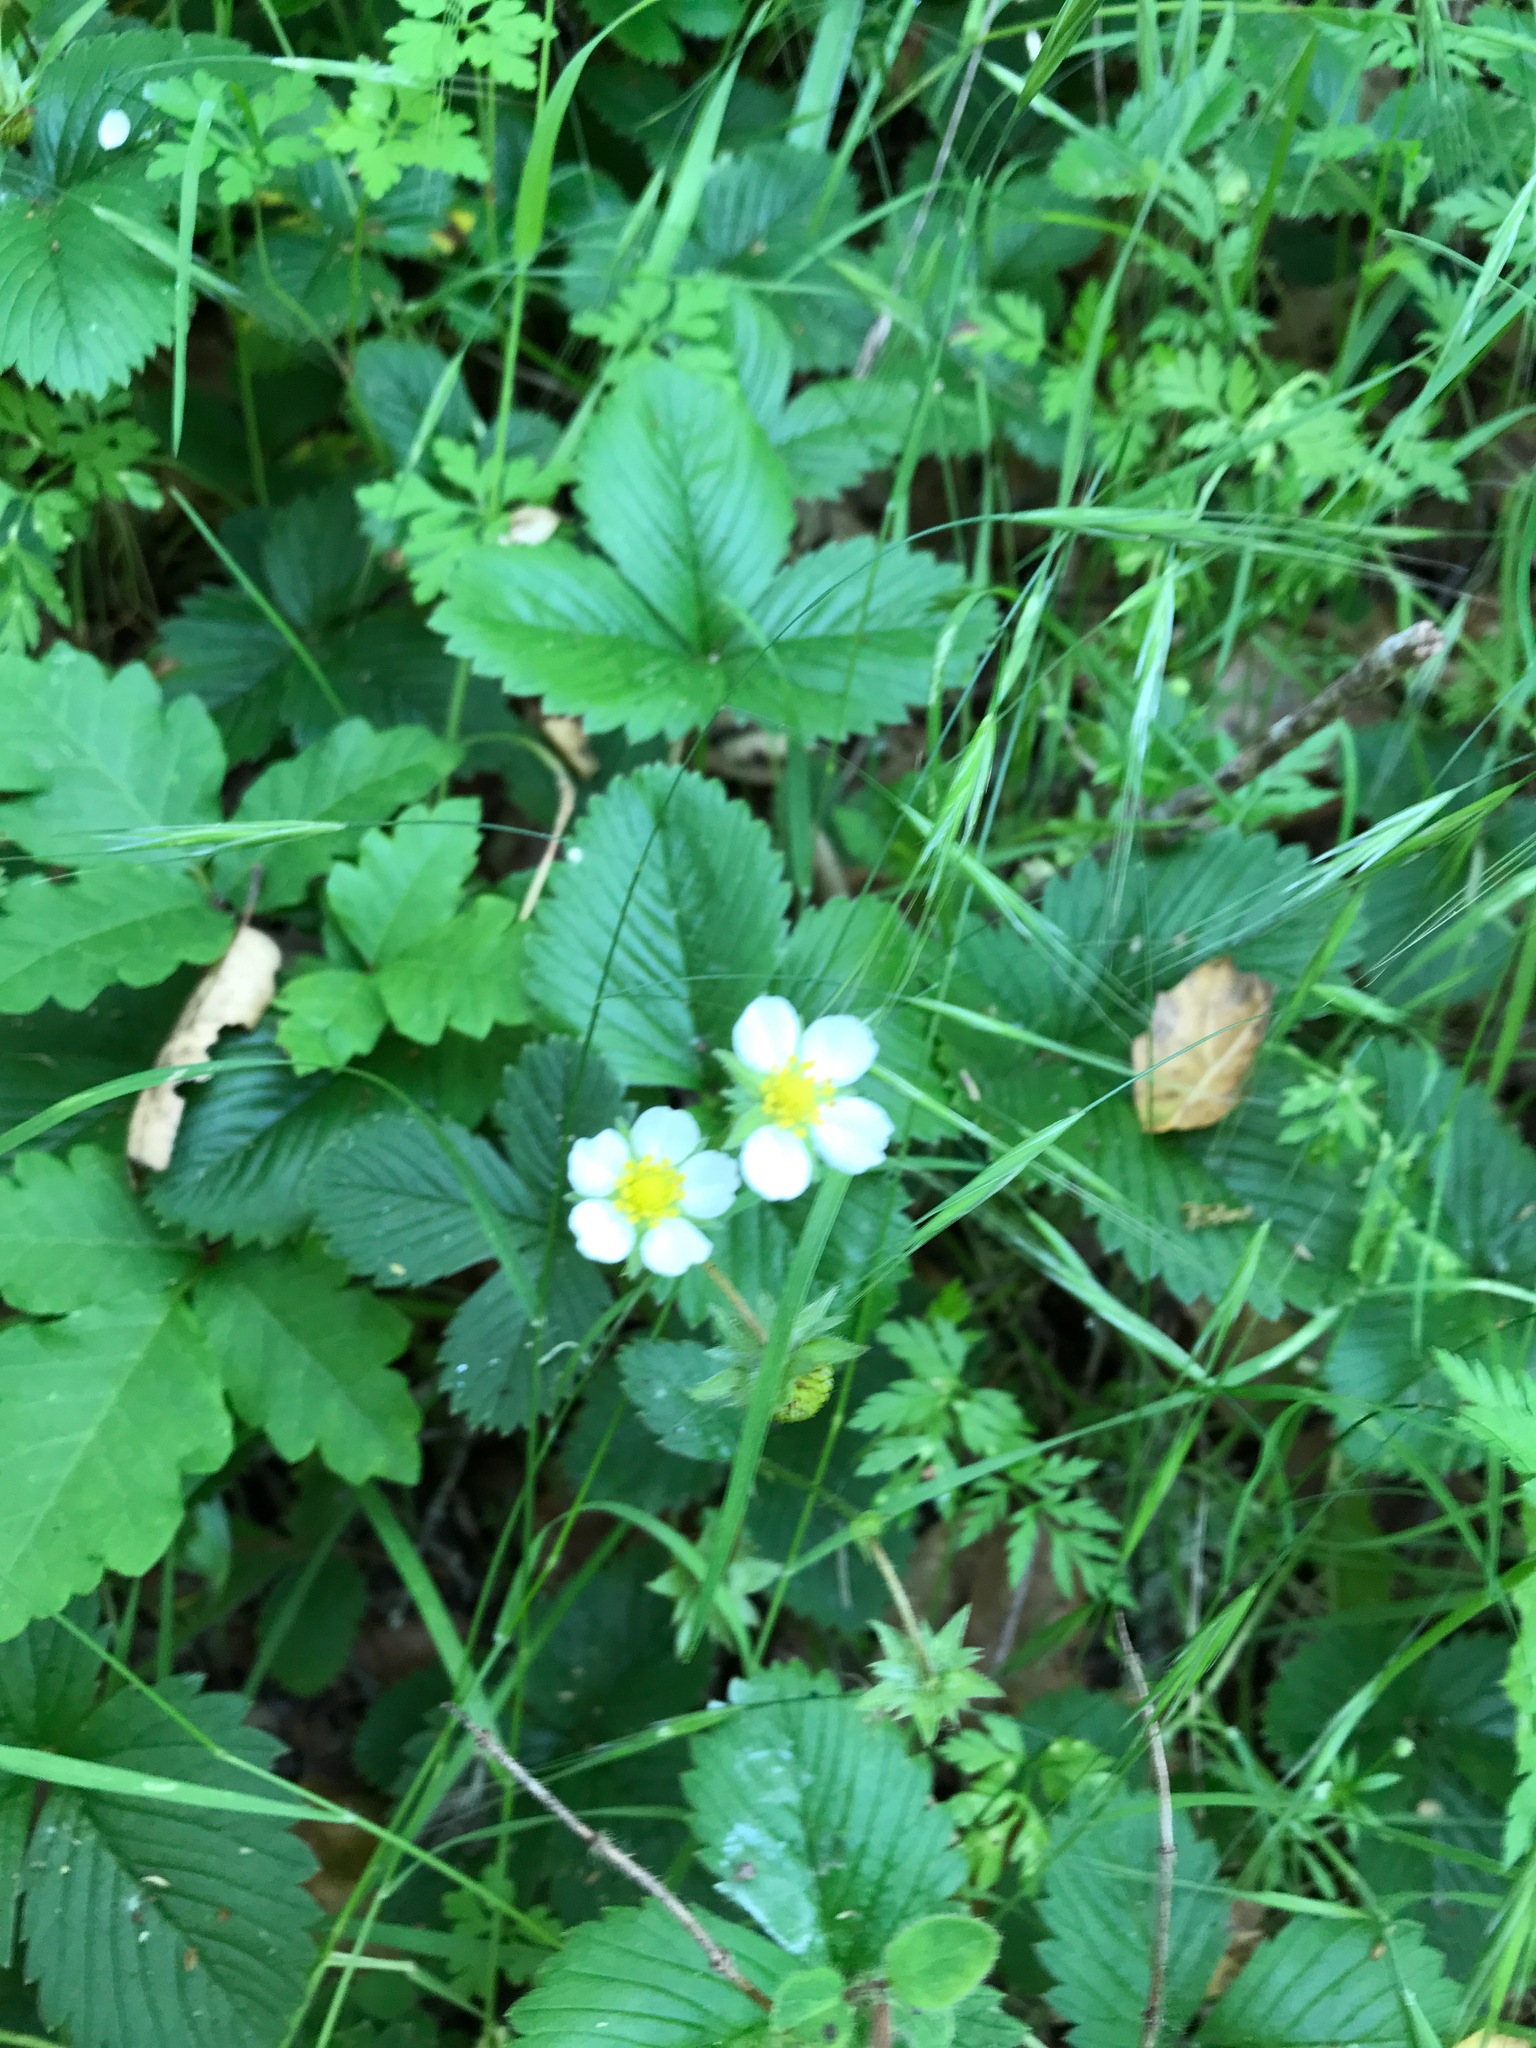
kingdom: Plantae
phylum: Tracheophyta
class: Magnoliopsida
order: Rosales
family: Rosaceae
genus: Fragaria
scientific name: Fragaria vesca
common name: Wild strawberry
